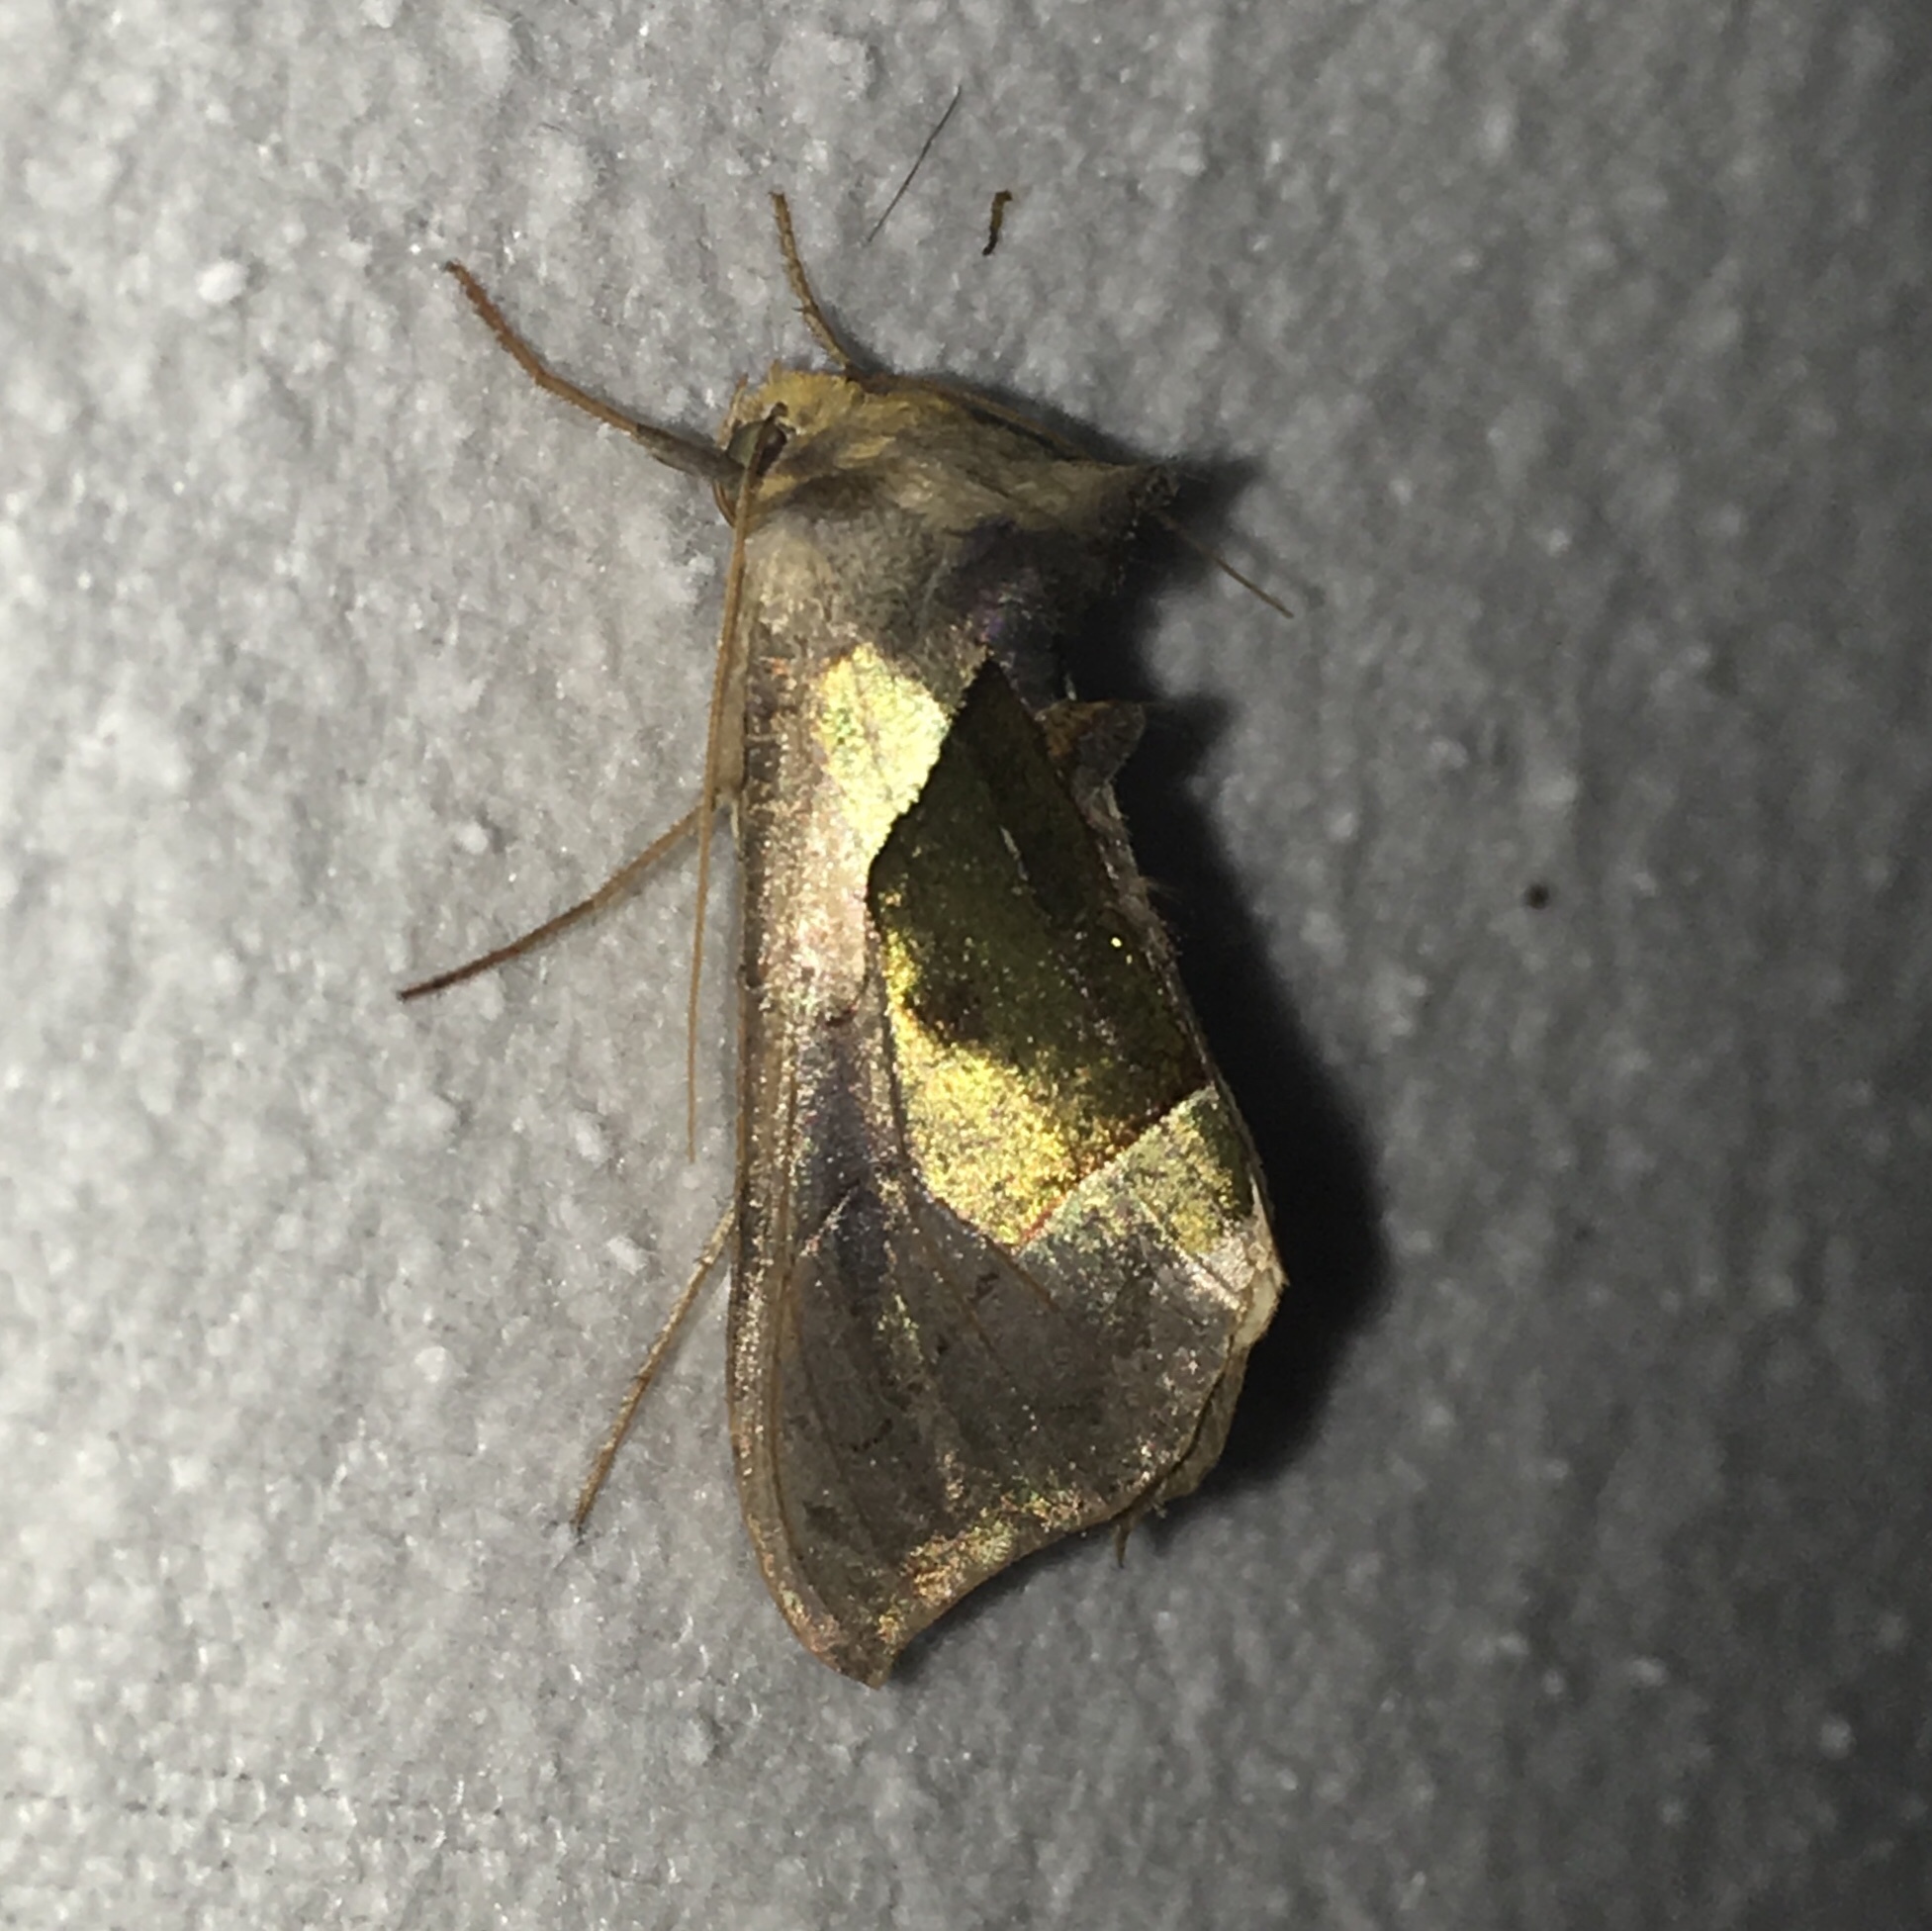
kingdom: Animalia
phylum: Arthropoda
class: Insecta
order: Lepidoptera
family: Noctuidae
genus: Diachrysia
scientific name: Diachrysia balluca
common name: Green-patched looper moth
